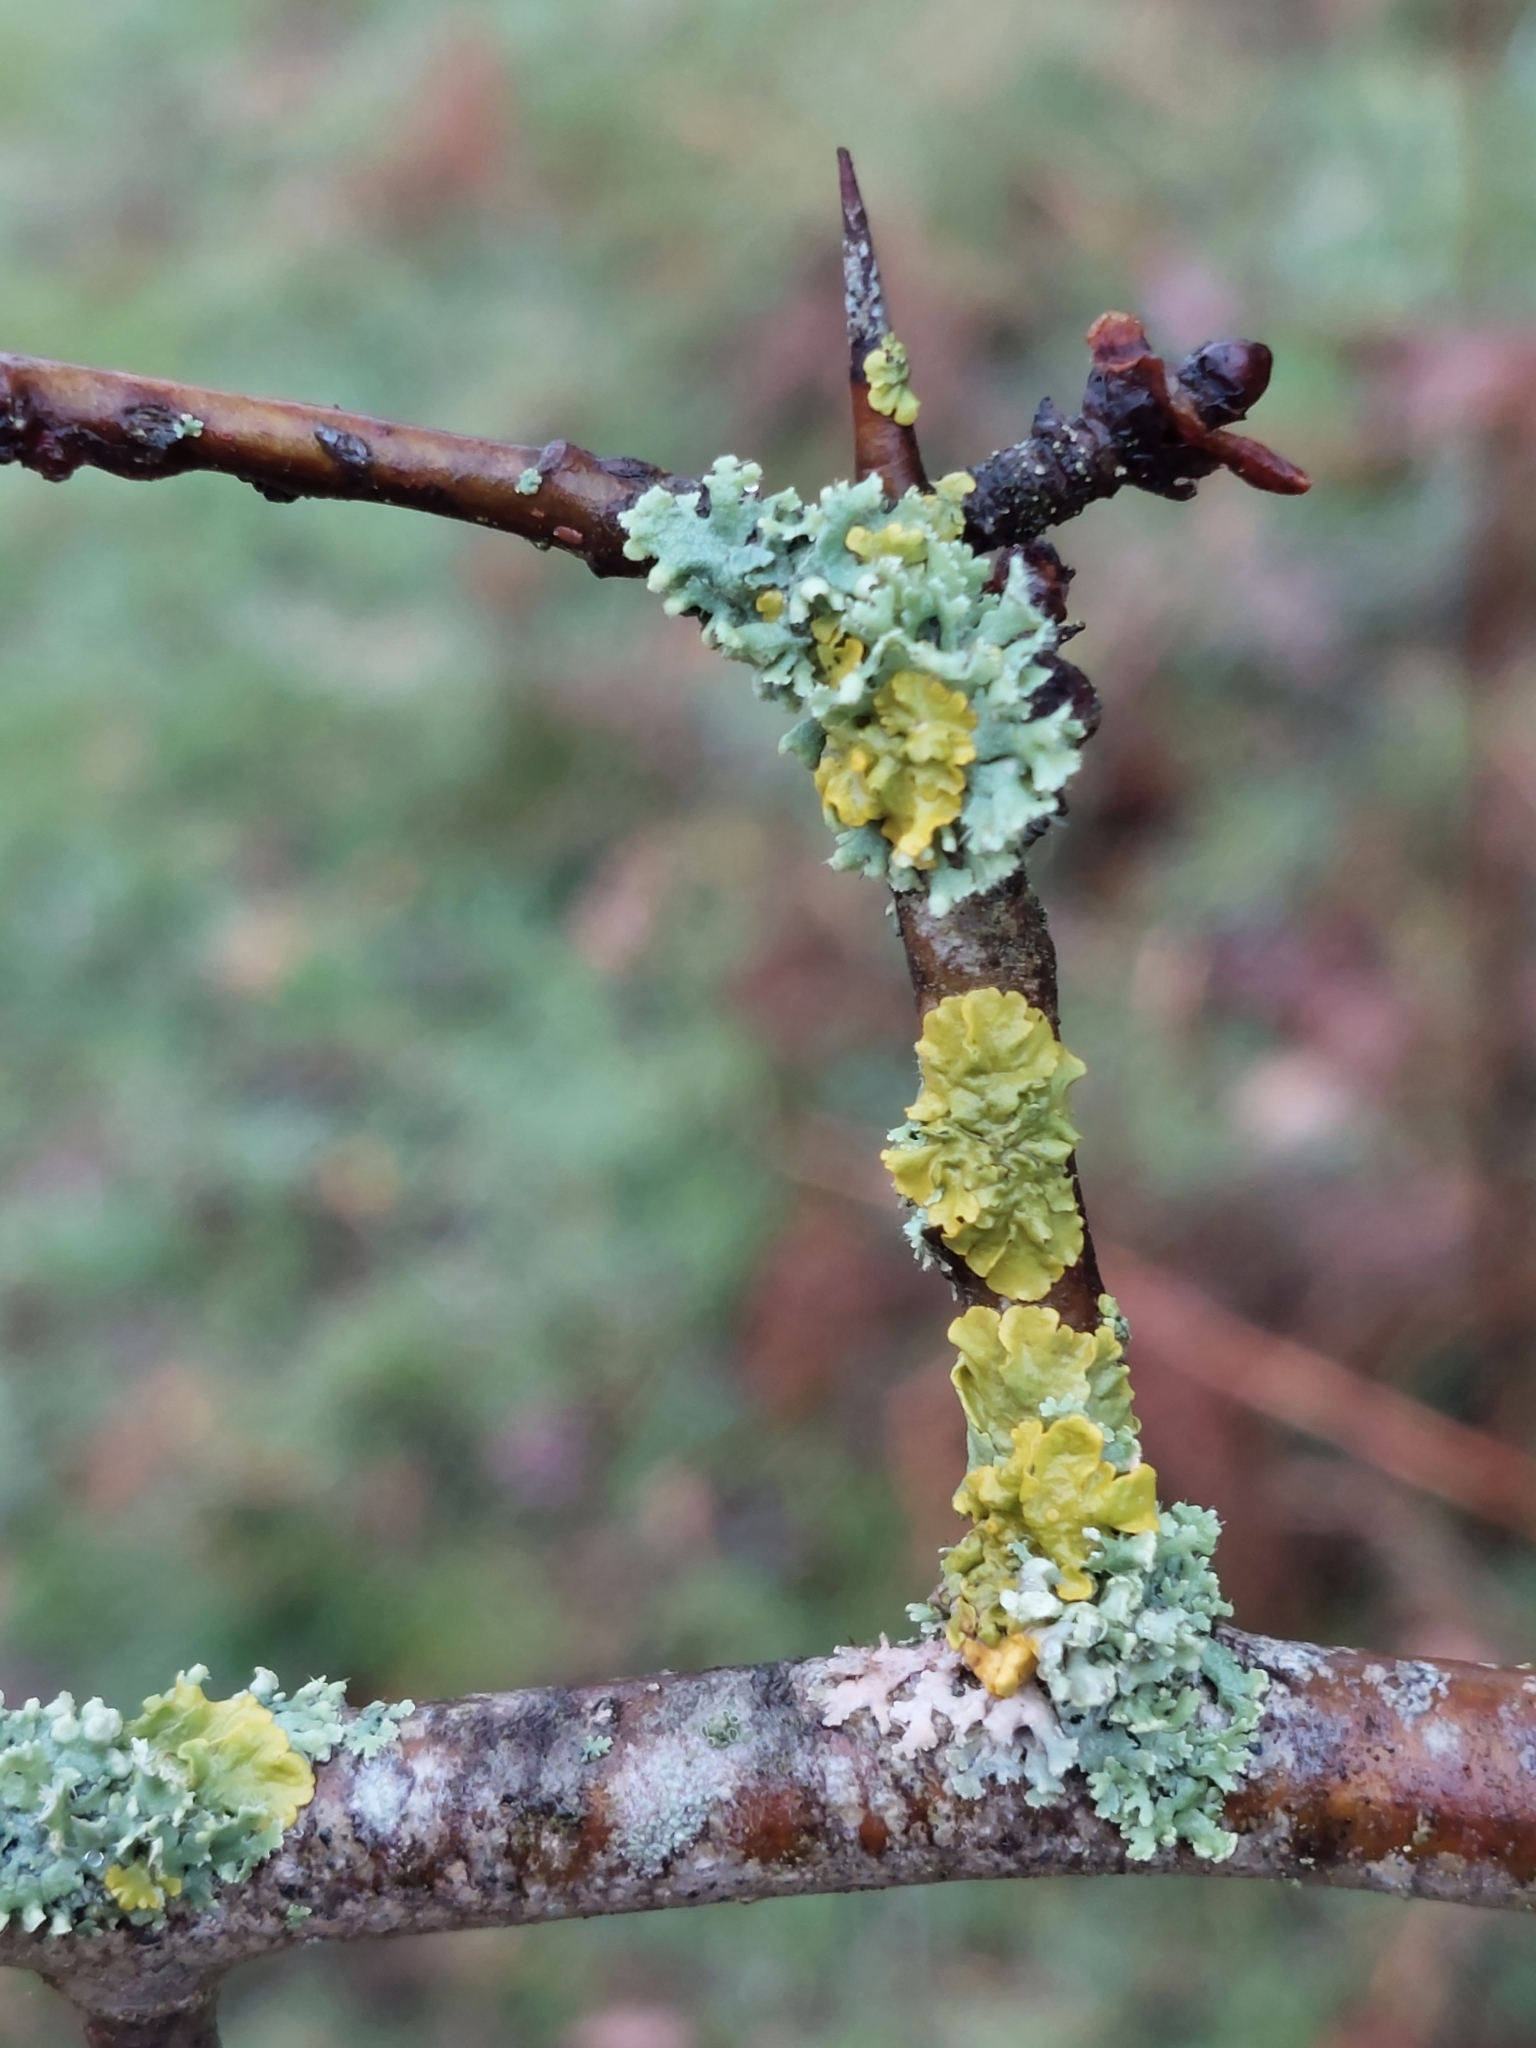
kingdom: Fungi
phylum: Ascomycota
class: Lecanoromycetes
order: Caliciales
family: Physciaceae
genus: Physcia
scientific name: Physcia adscendens
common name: Hooded rosette lichen
